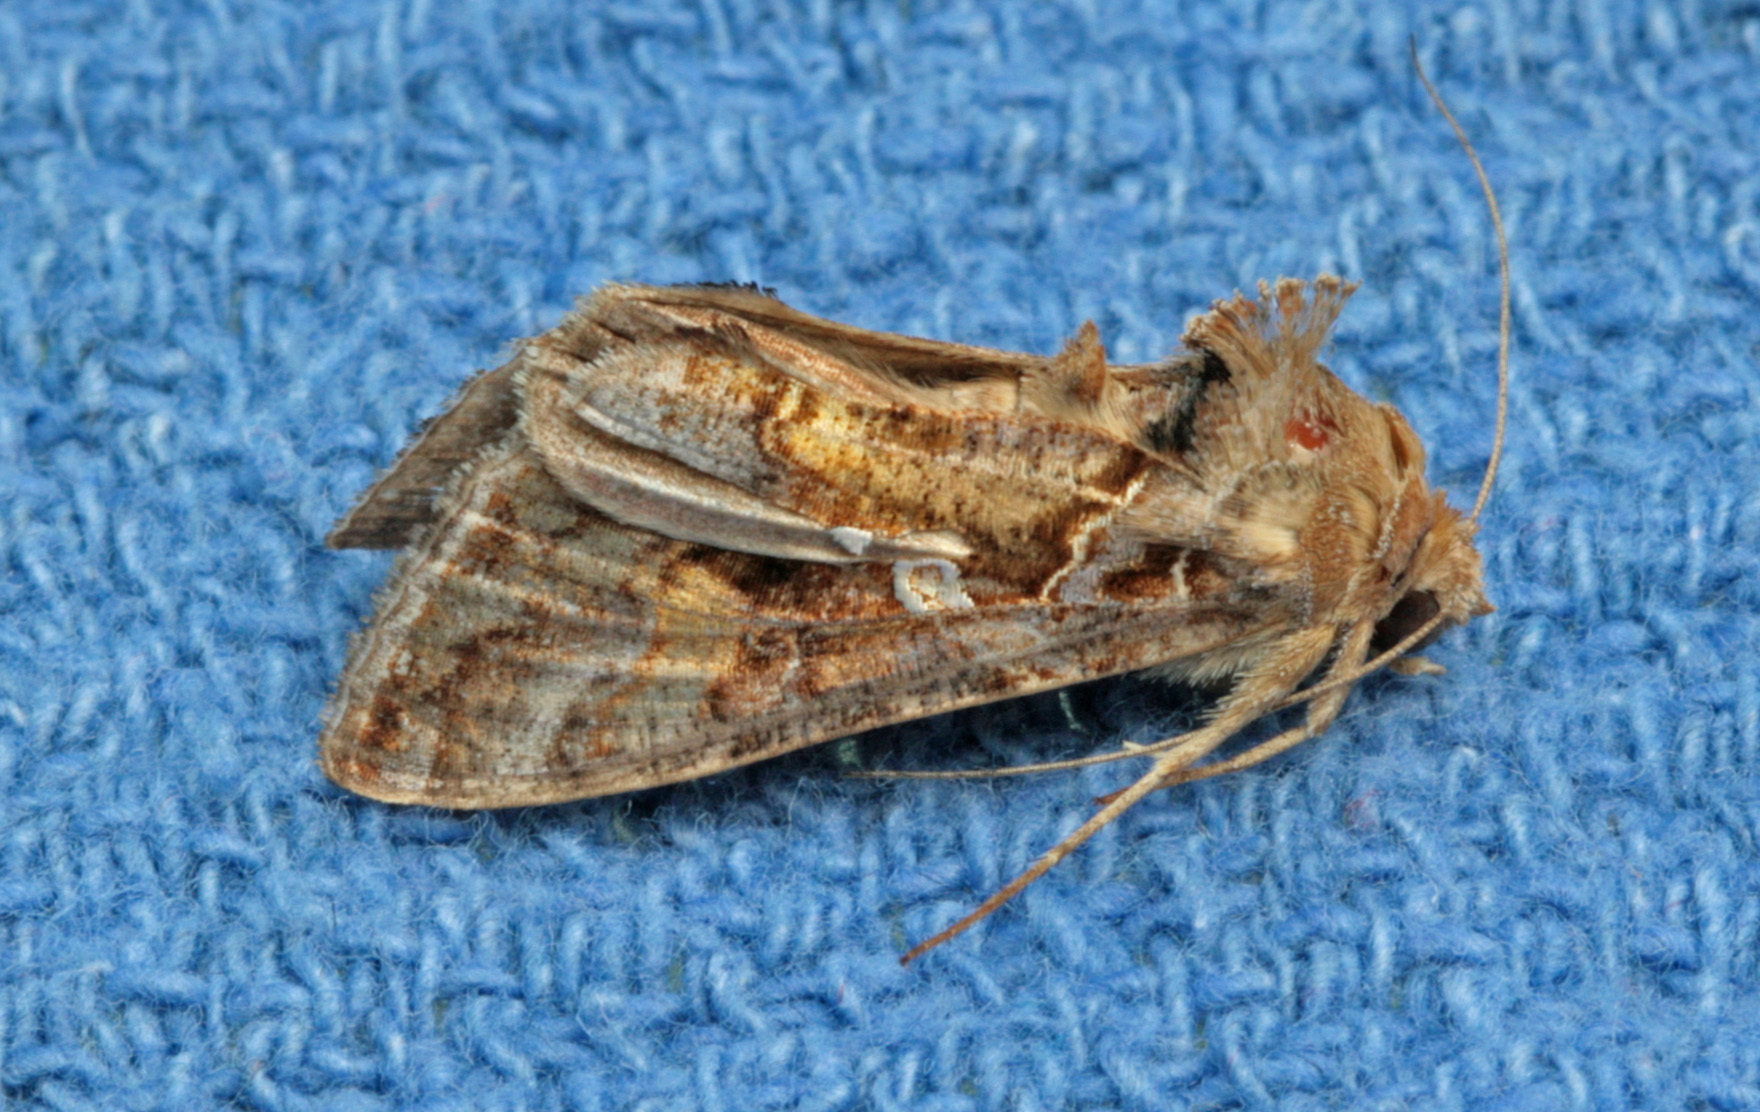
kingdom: Animalia
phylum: Arthropoda
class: Insecta
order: Lepidoptera
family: Noctuidae
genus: Chrysodeixis
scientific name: Chrysodeixis includens
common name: Cutworm moth
